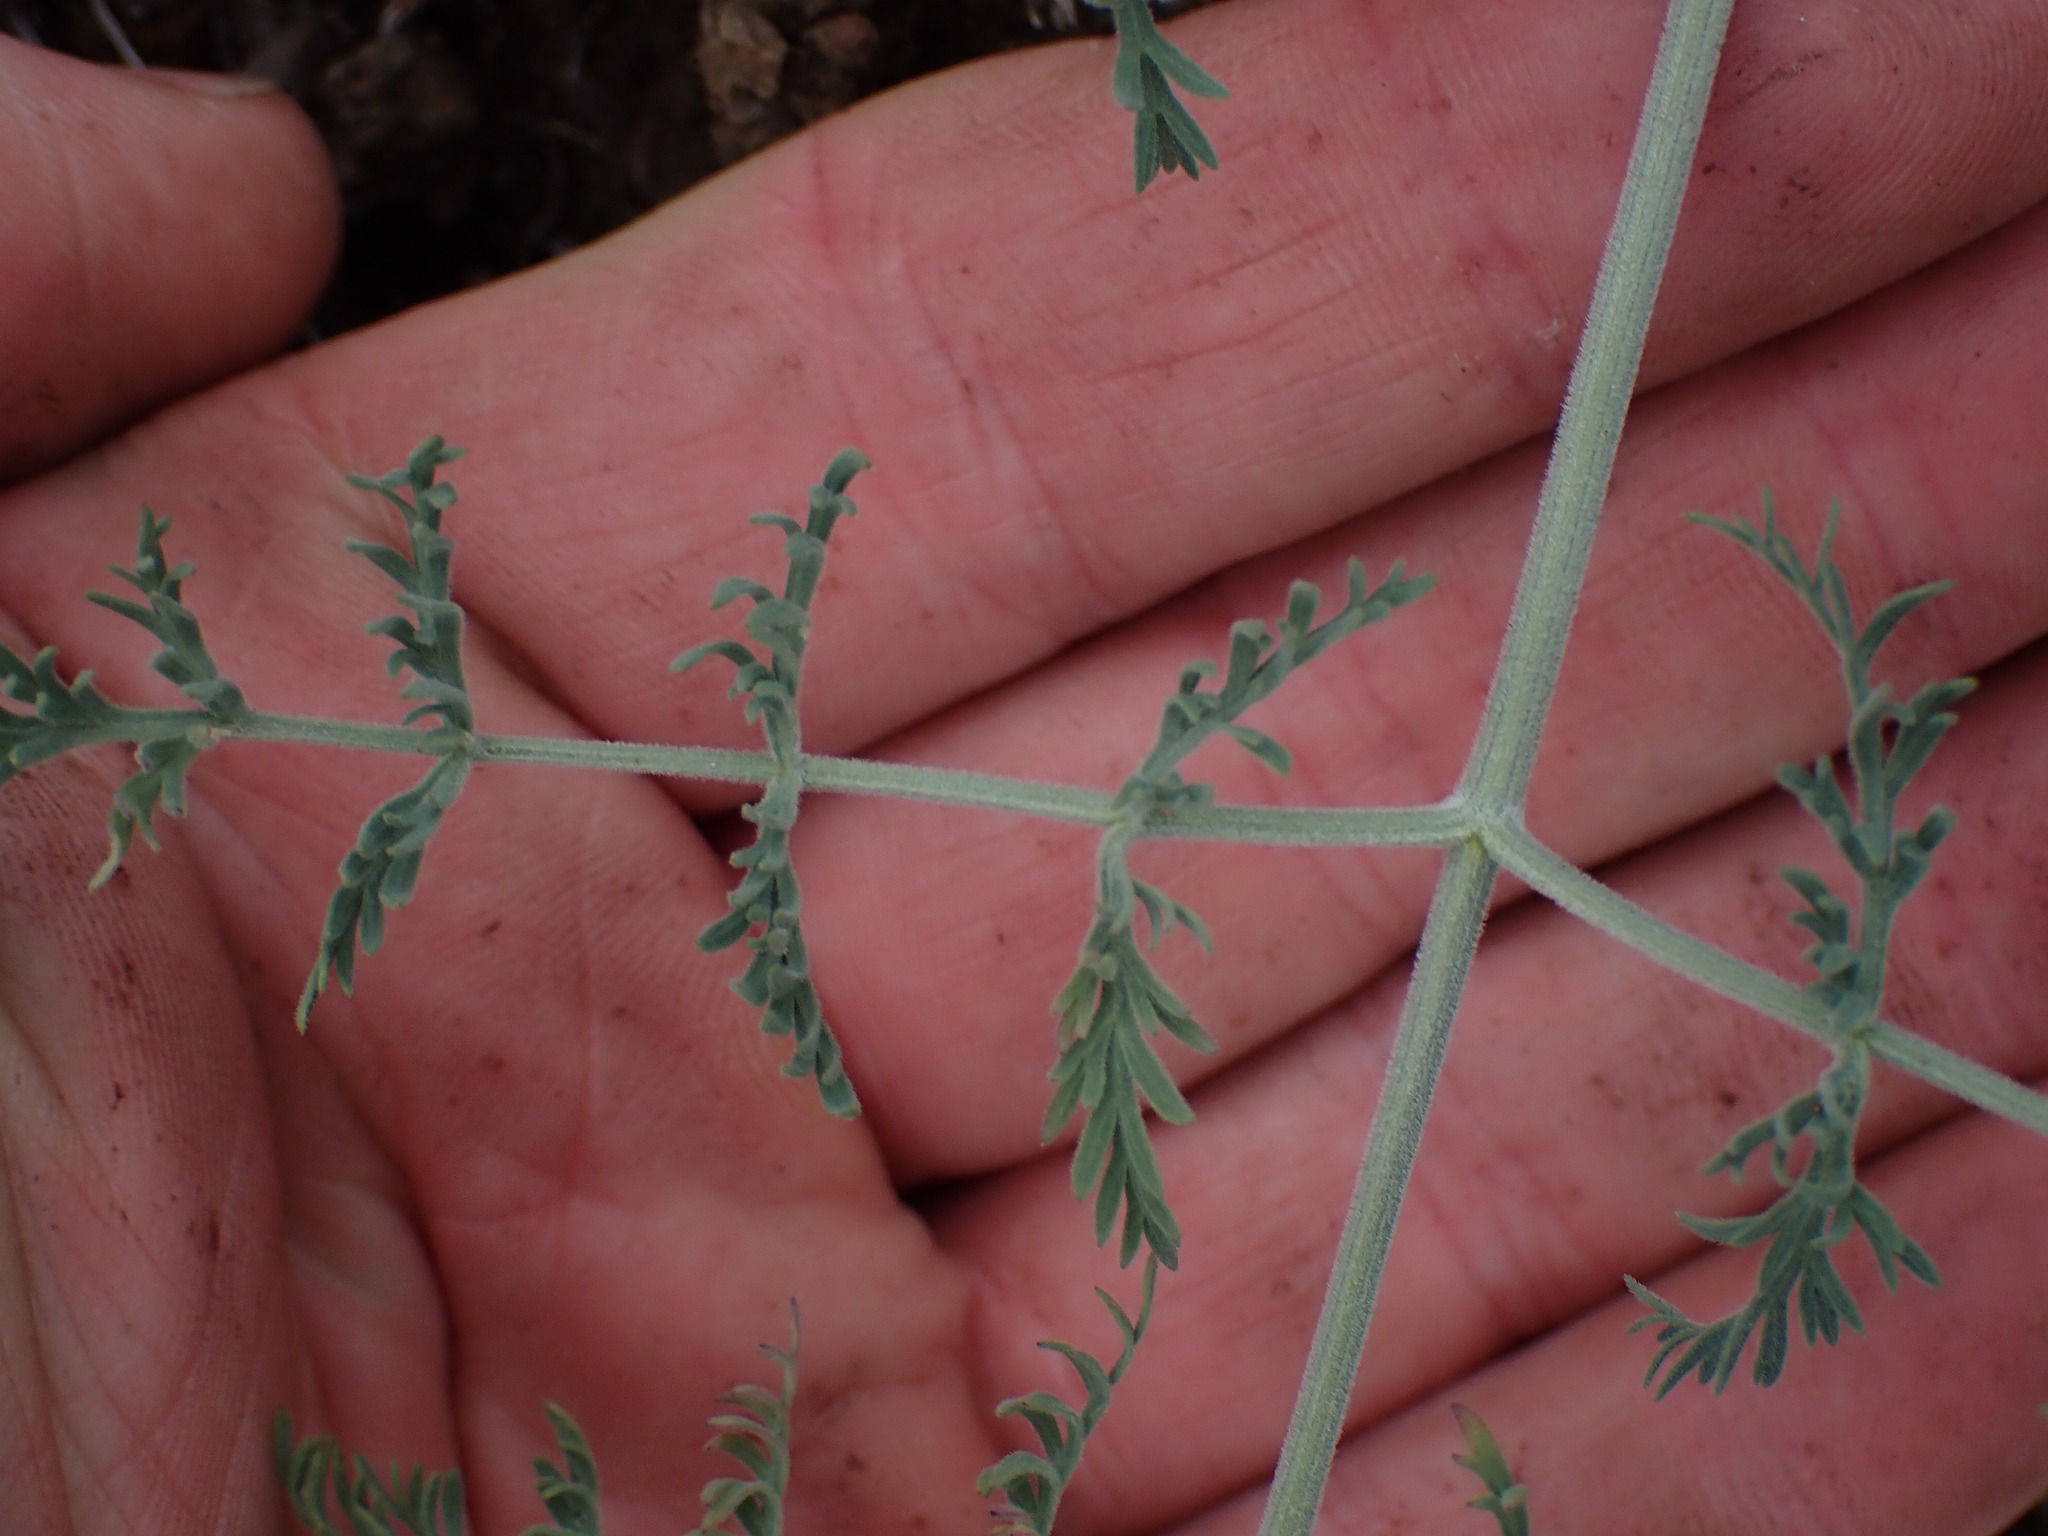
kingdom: Plantae
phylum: Tracheophyta
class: Magnoliopsida
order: Apiales
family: Apiaceae
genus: Lomatium
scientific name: Lomatium macrocarpum
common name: Big-seed biscuitroot
